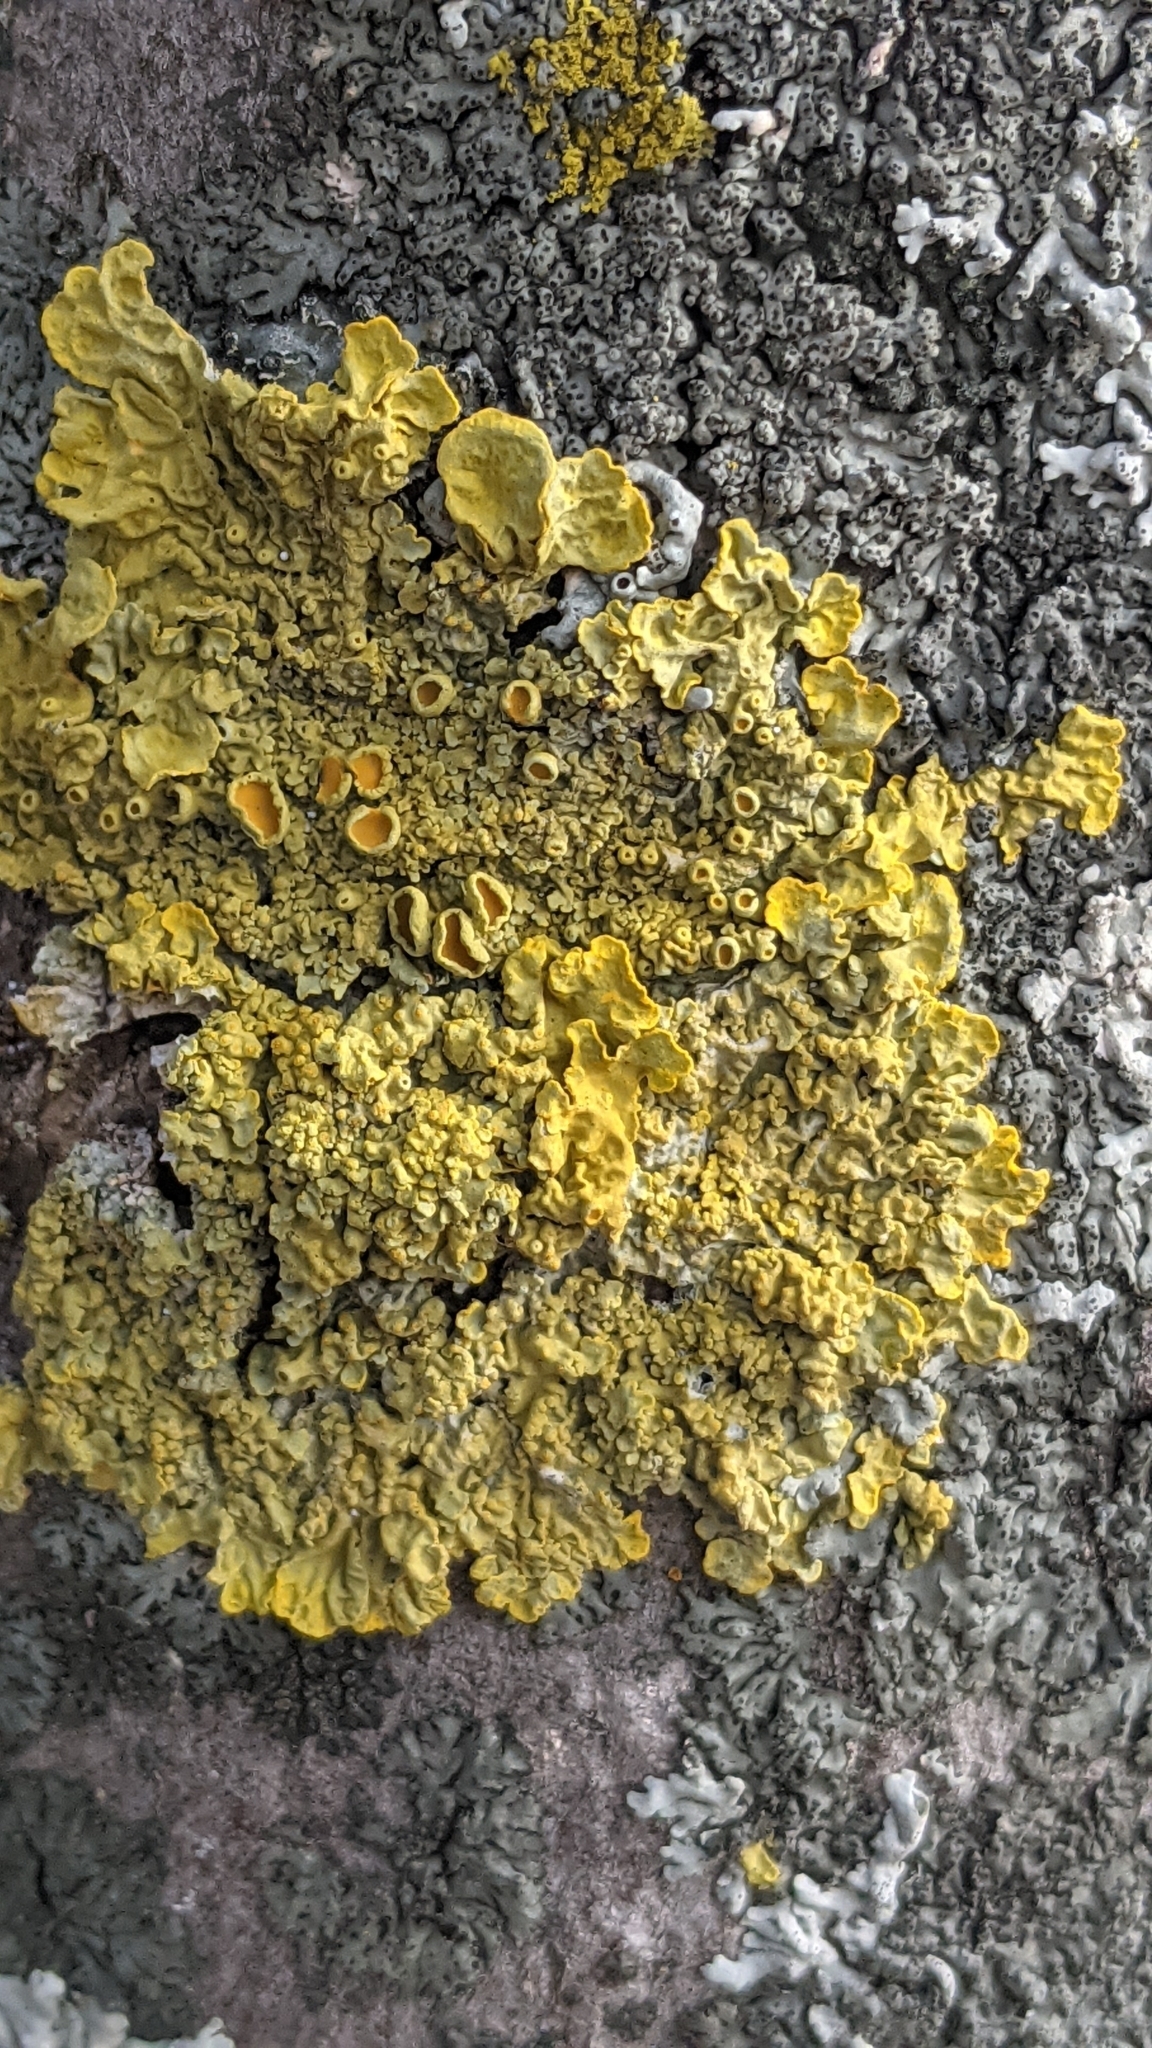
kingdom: Fungi
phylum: Ascomycota
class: Lecanoromycetes
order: Teloschistales
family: Teloschistaceae
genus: Xanthoria
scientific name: Xanthoria parietina
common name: Common orange lichen
